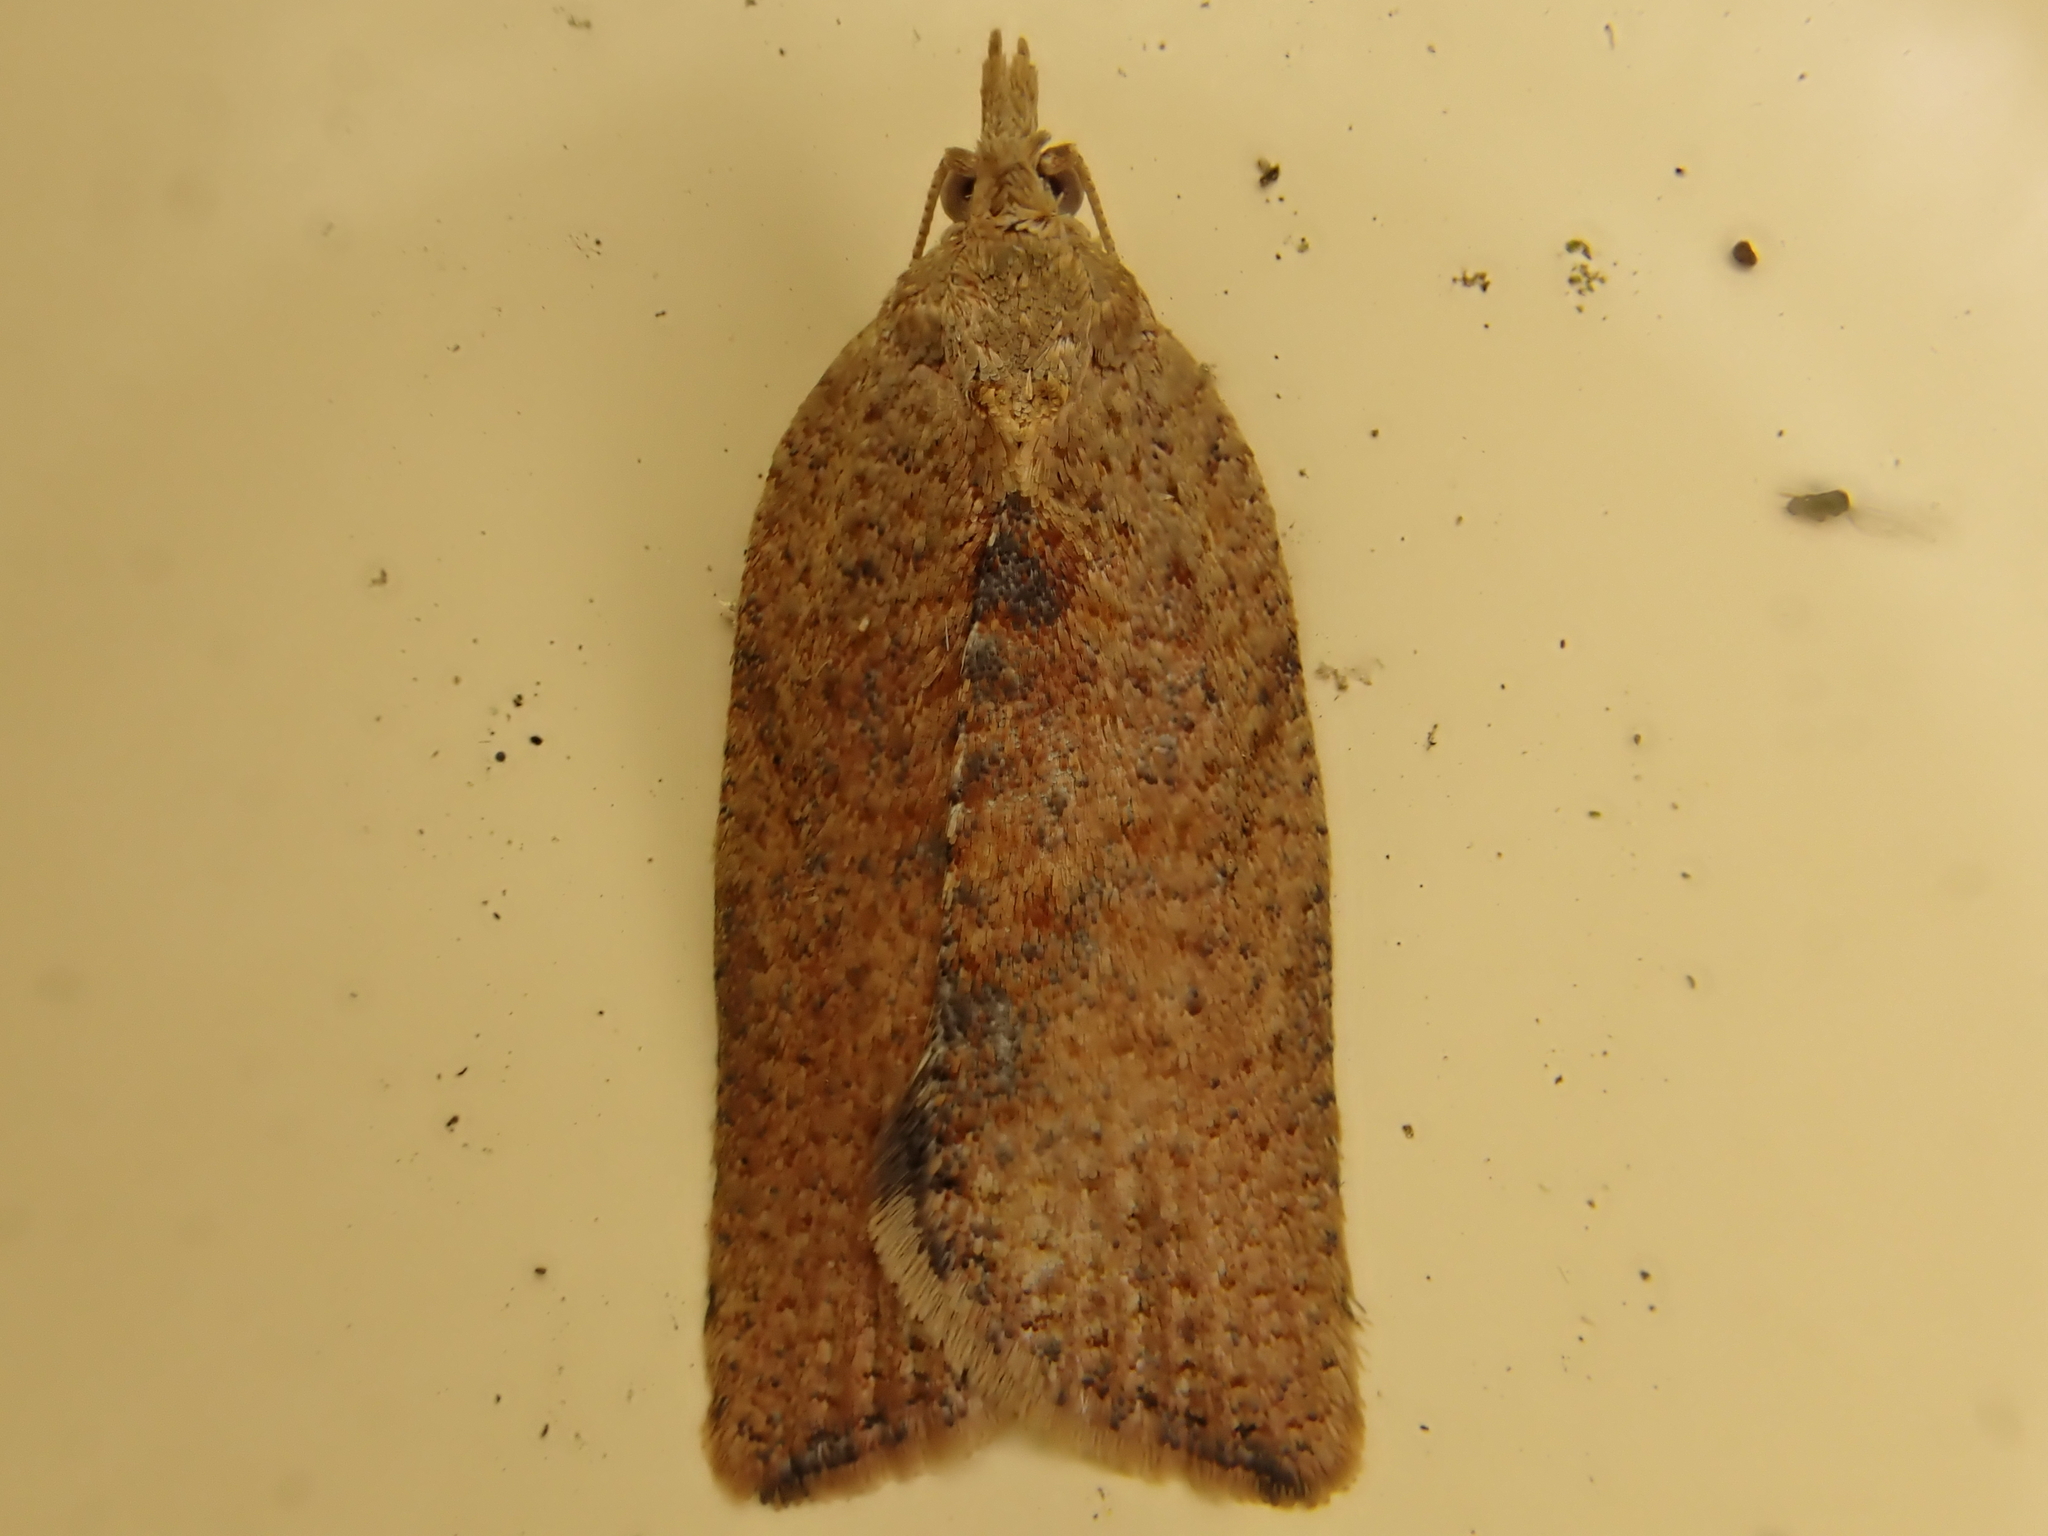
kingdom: Animalia
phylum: Arthropoda
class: Insecta
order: Lepidoptera
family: Tortricidae
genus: Epiphyas
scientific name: Epiphyas postvittana
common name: Light brown apple moth
